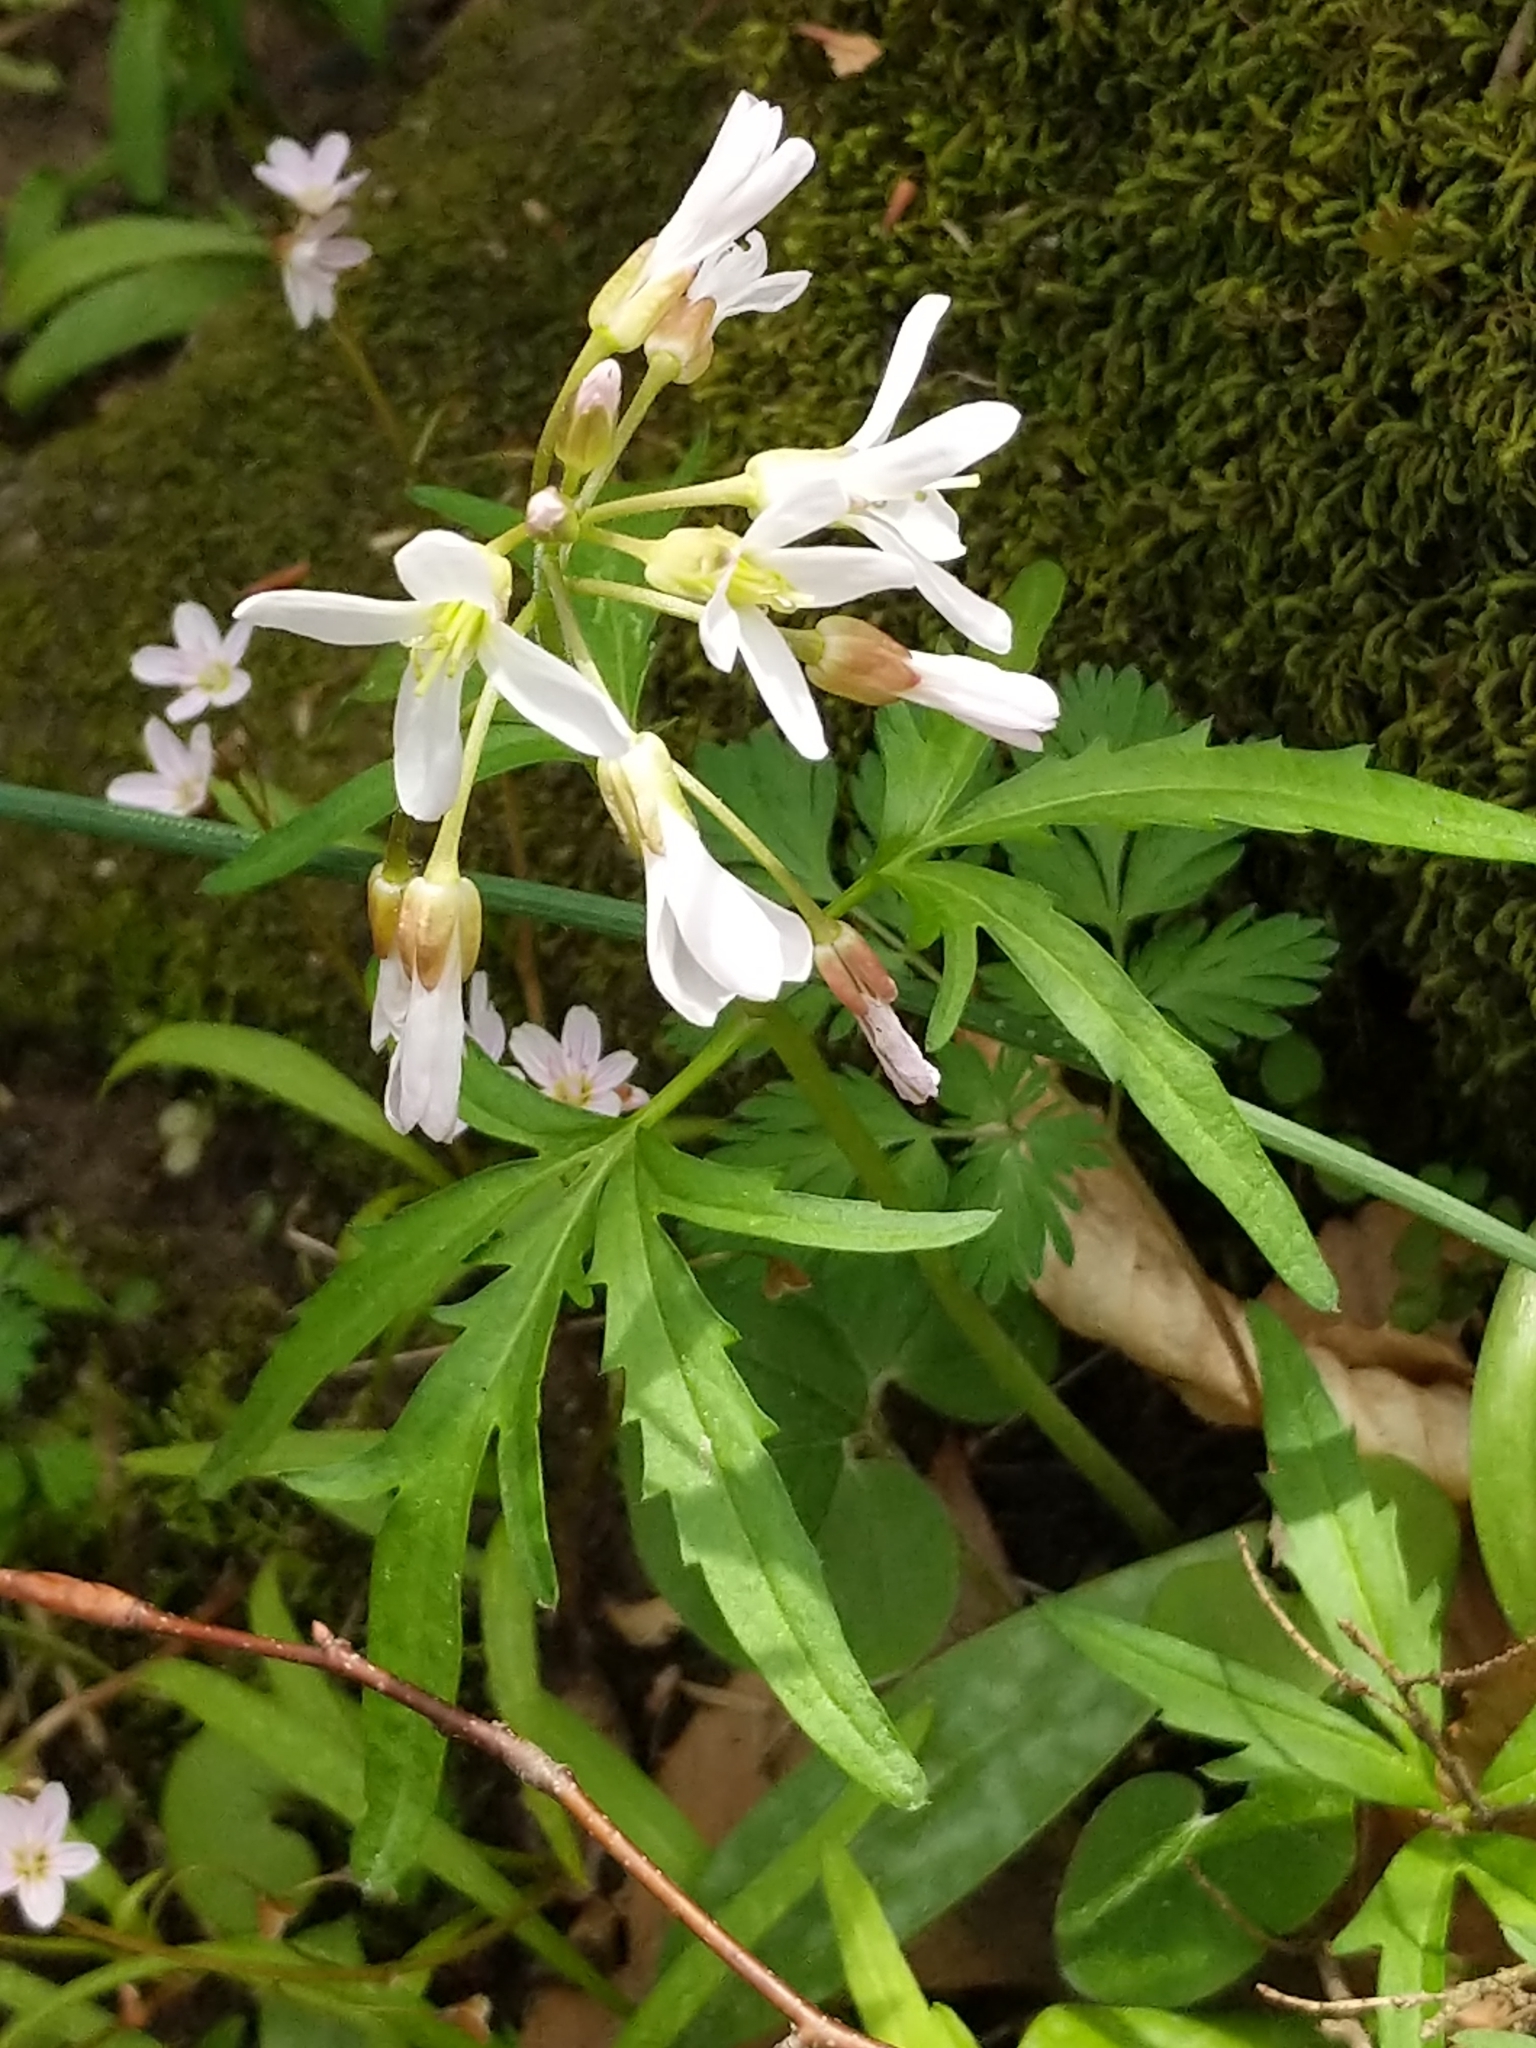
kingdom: Plantae
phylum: Tracheophyta
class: Magnoliopsida
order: Brassicales
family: Brassicaceae
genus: Cardamine
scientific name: Cardamine concatenata
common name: Cut-leaf toothcup
